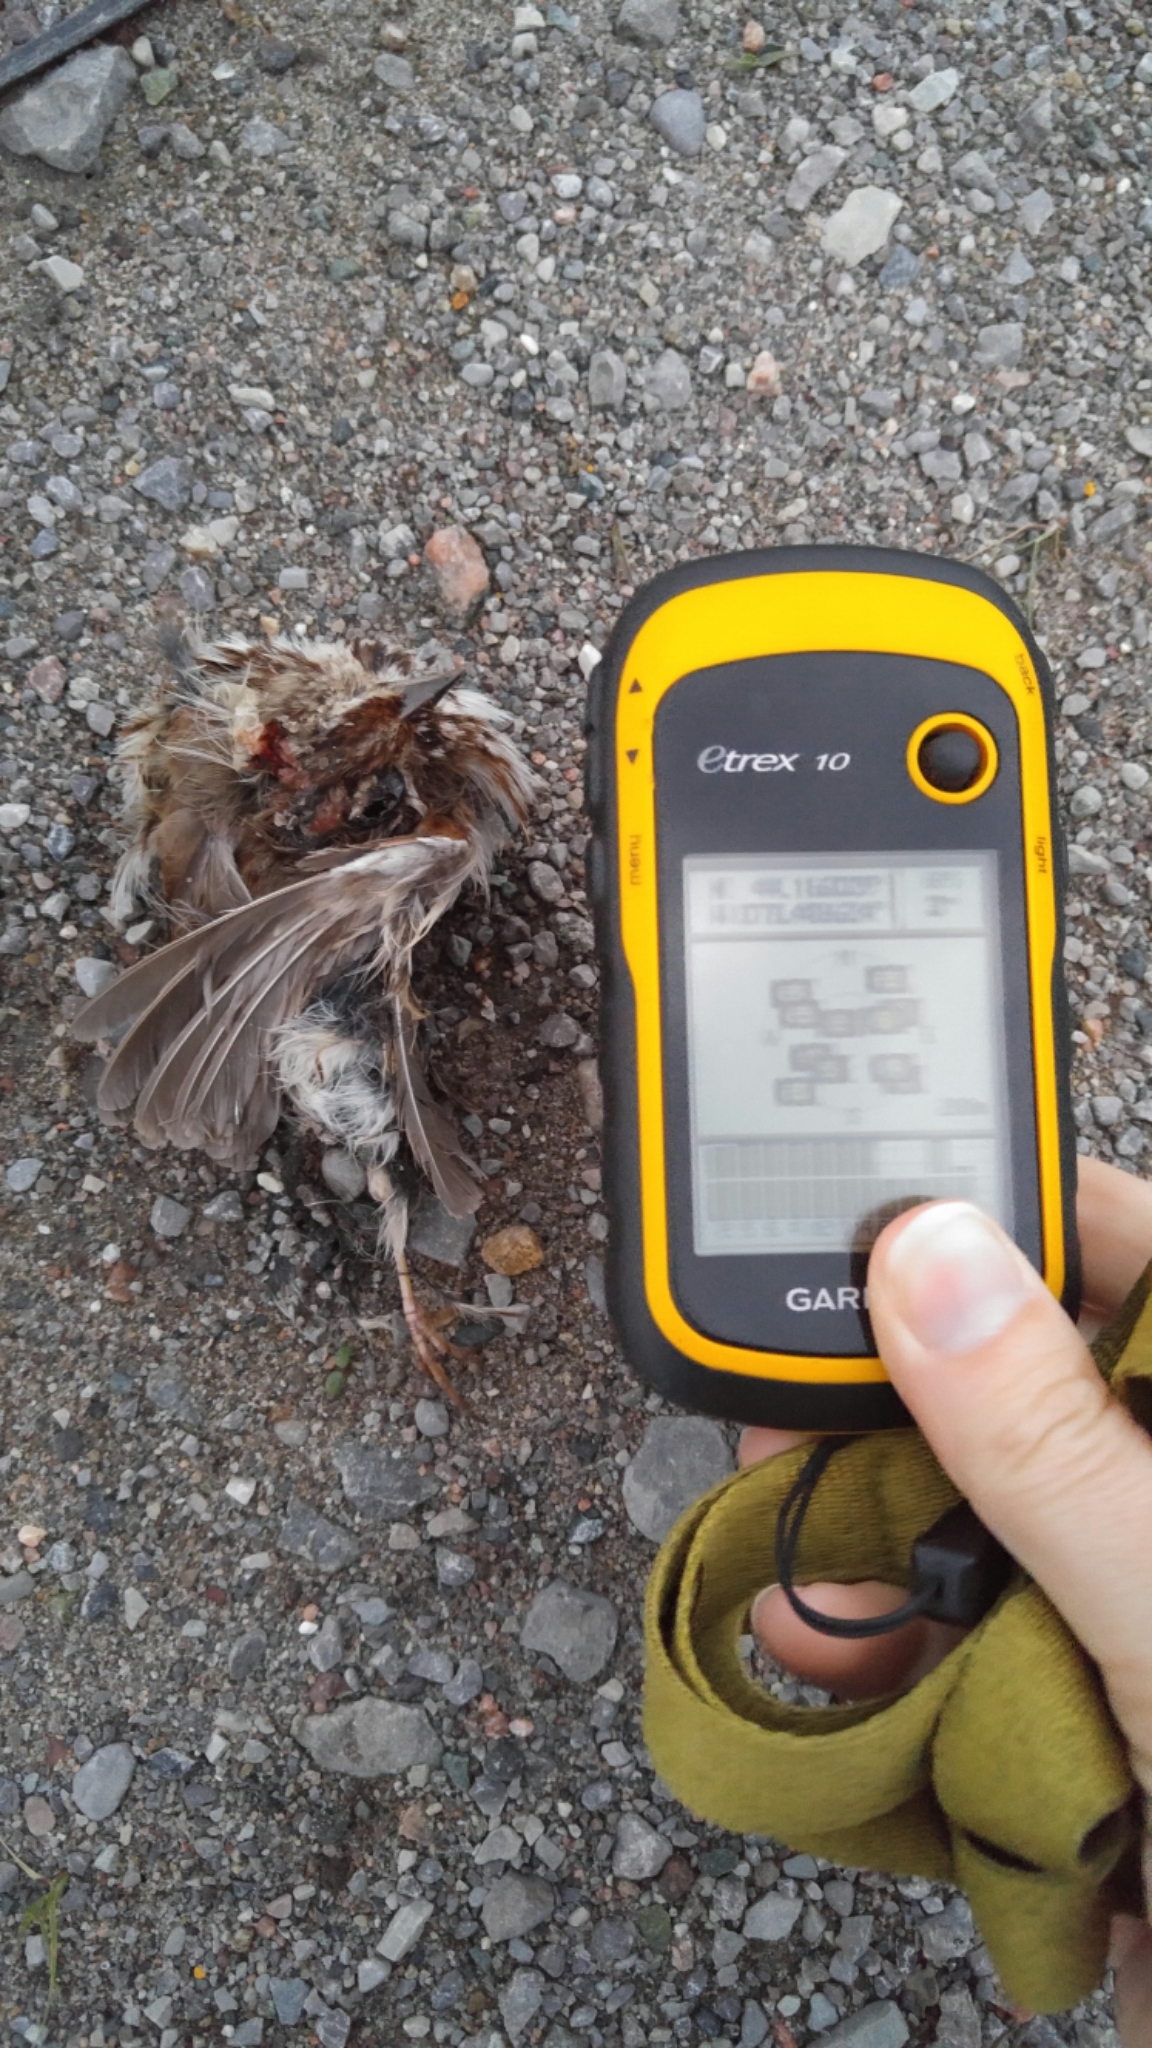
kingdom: Animalia
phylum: Chordata
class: Aves
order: Passeriformes
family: Passerellidae
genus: Melospiza
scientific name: Melospiza melodia
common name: Song sparrow
